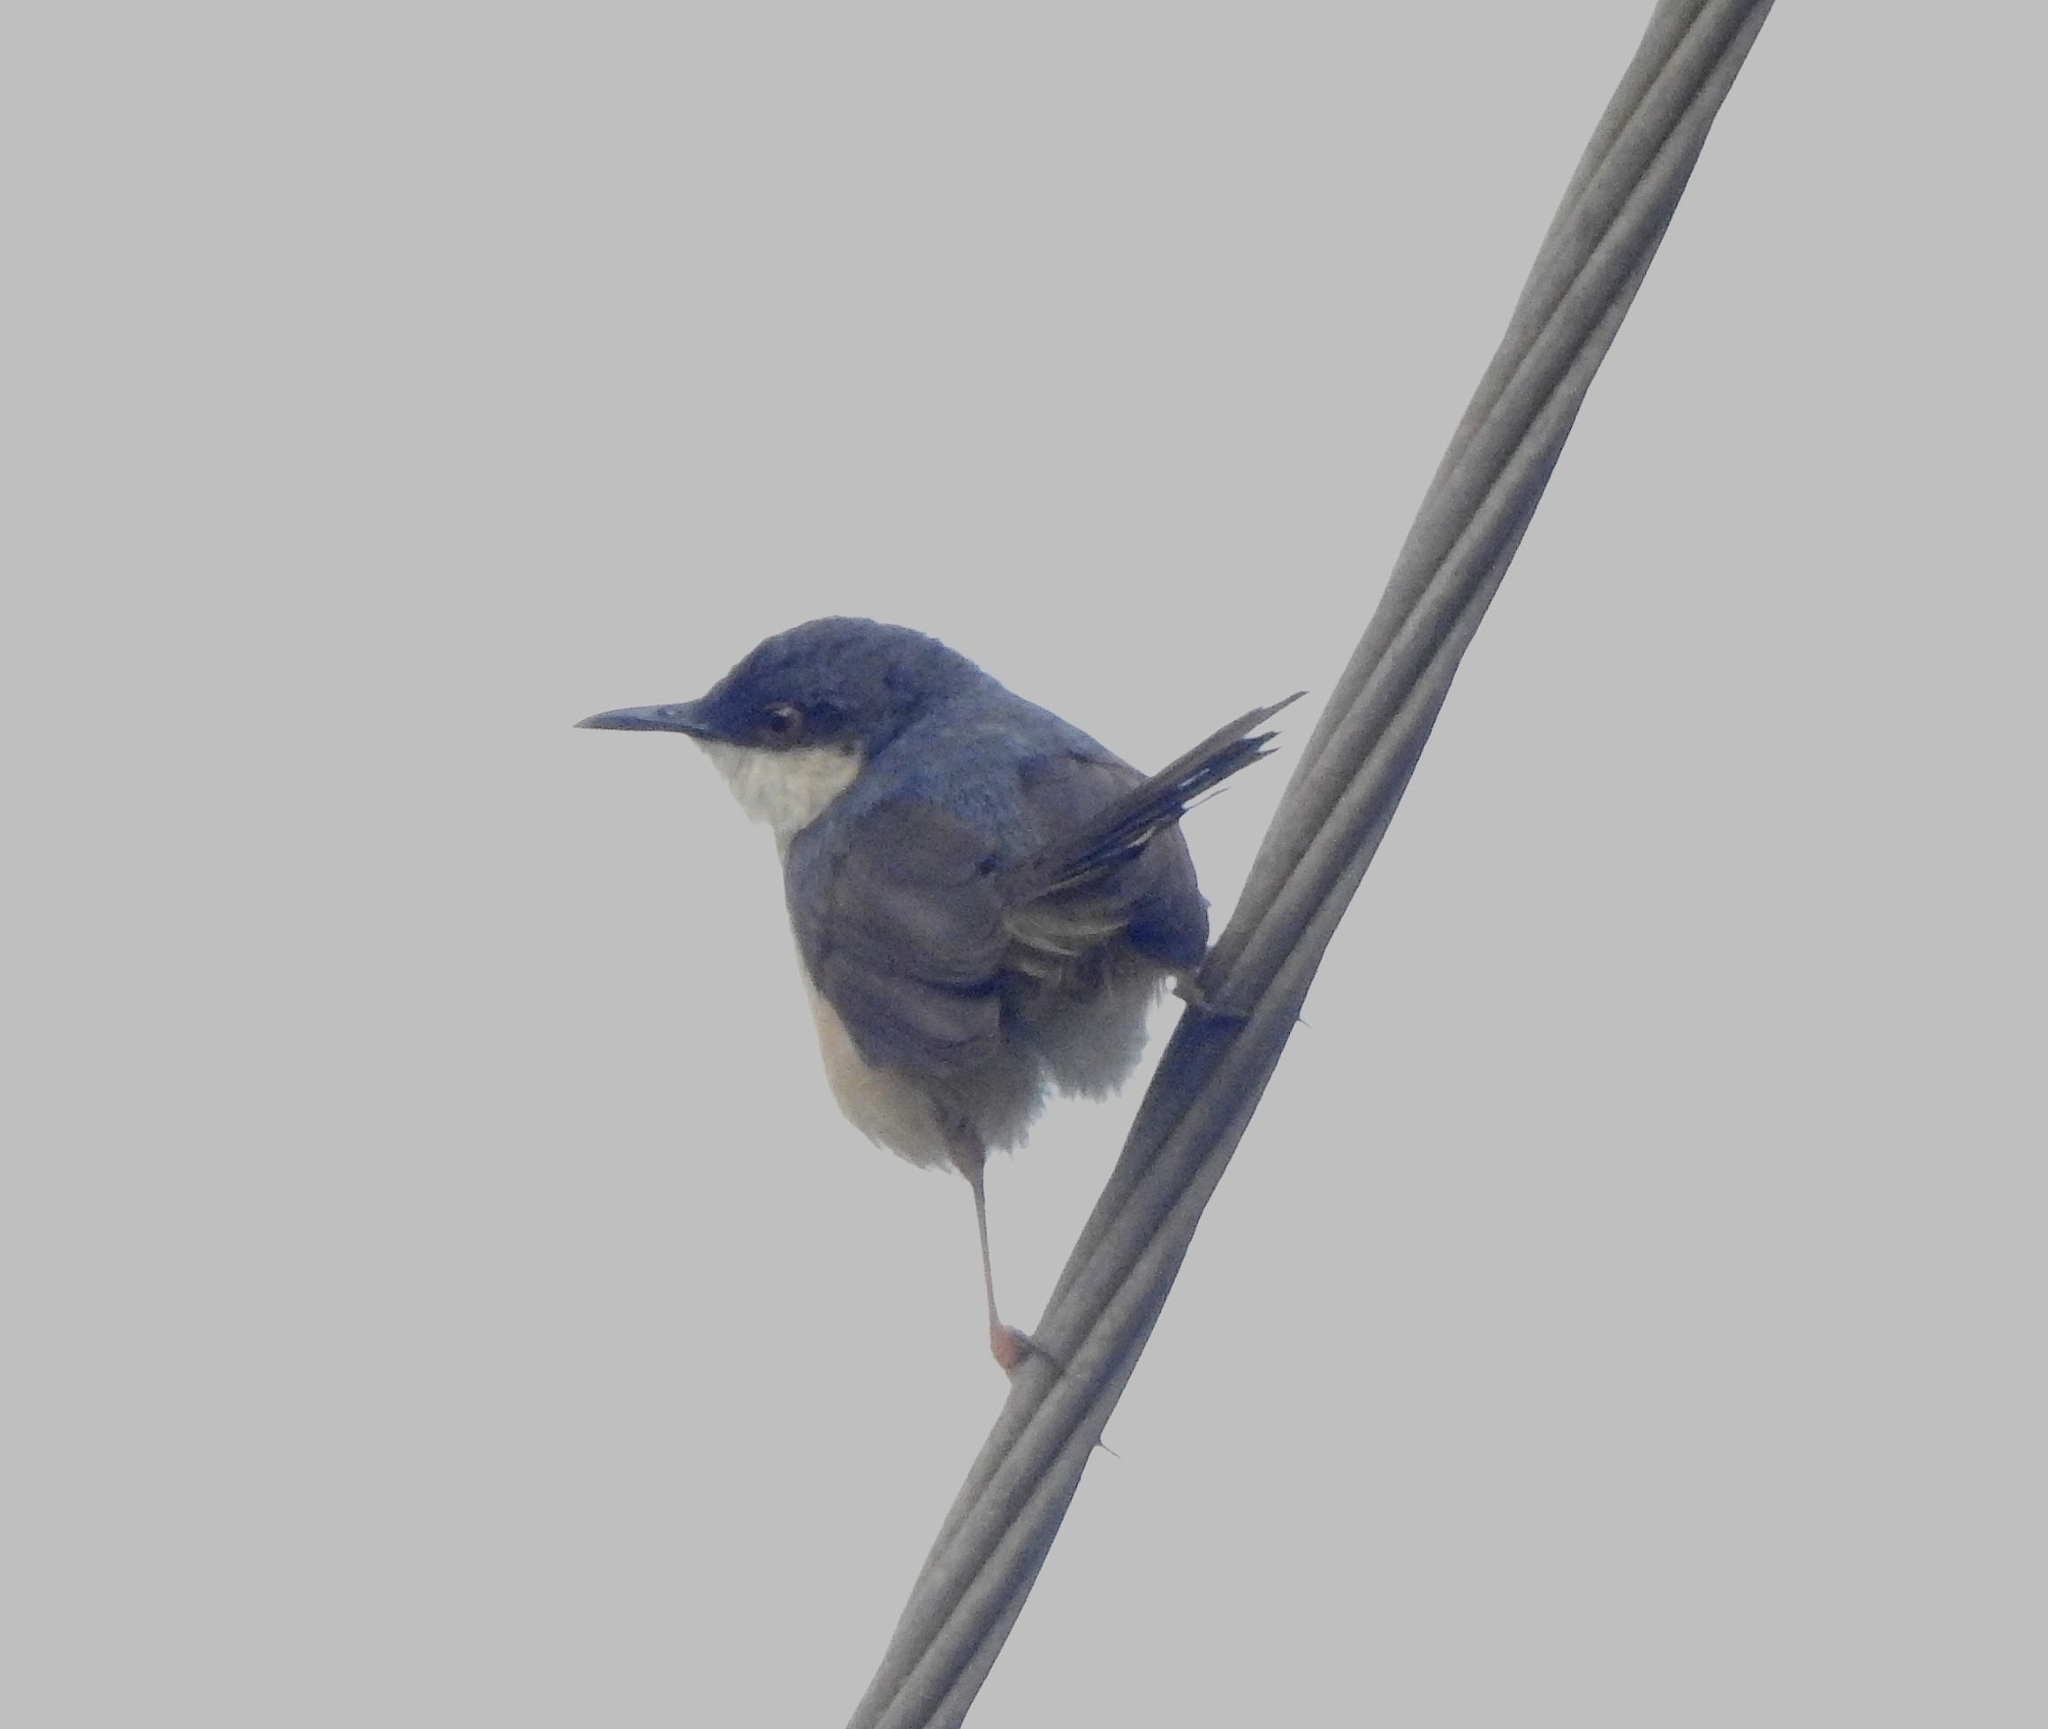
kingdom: Animalia
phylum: Chordata
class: Aves
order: Passeriformes
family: Cisticolidae
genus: Prinia
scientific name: Prinia socialis
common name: Ashy prinia
